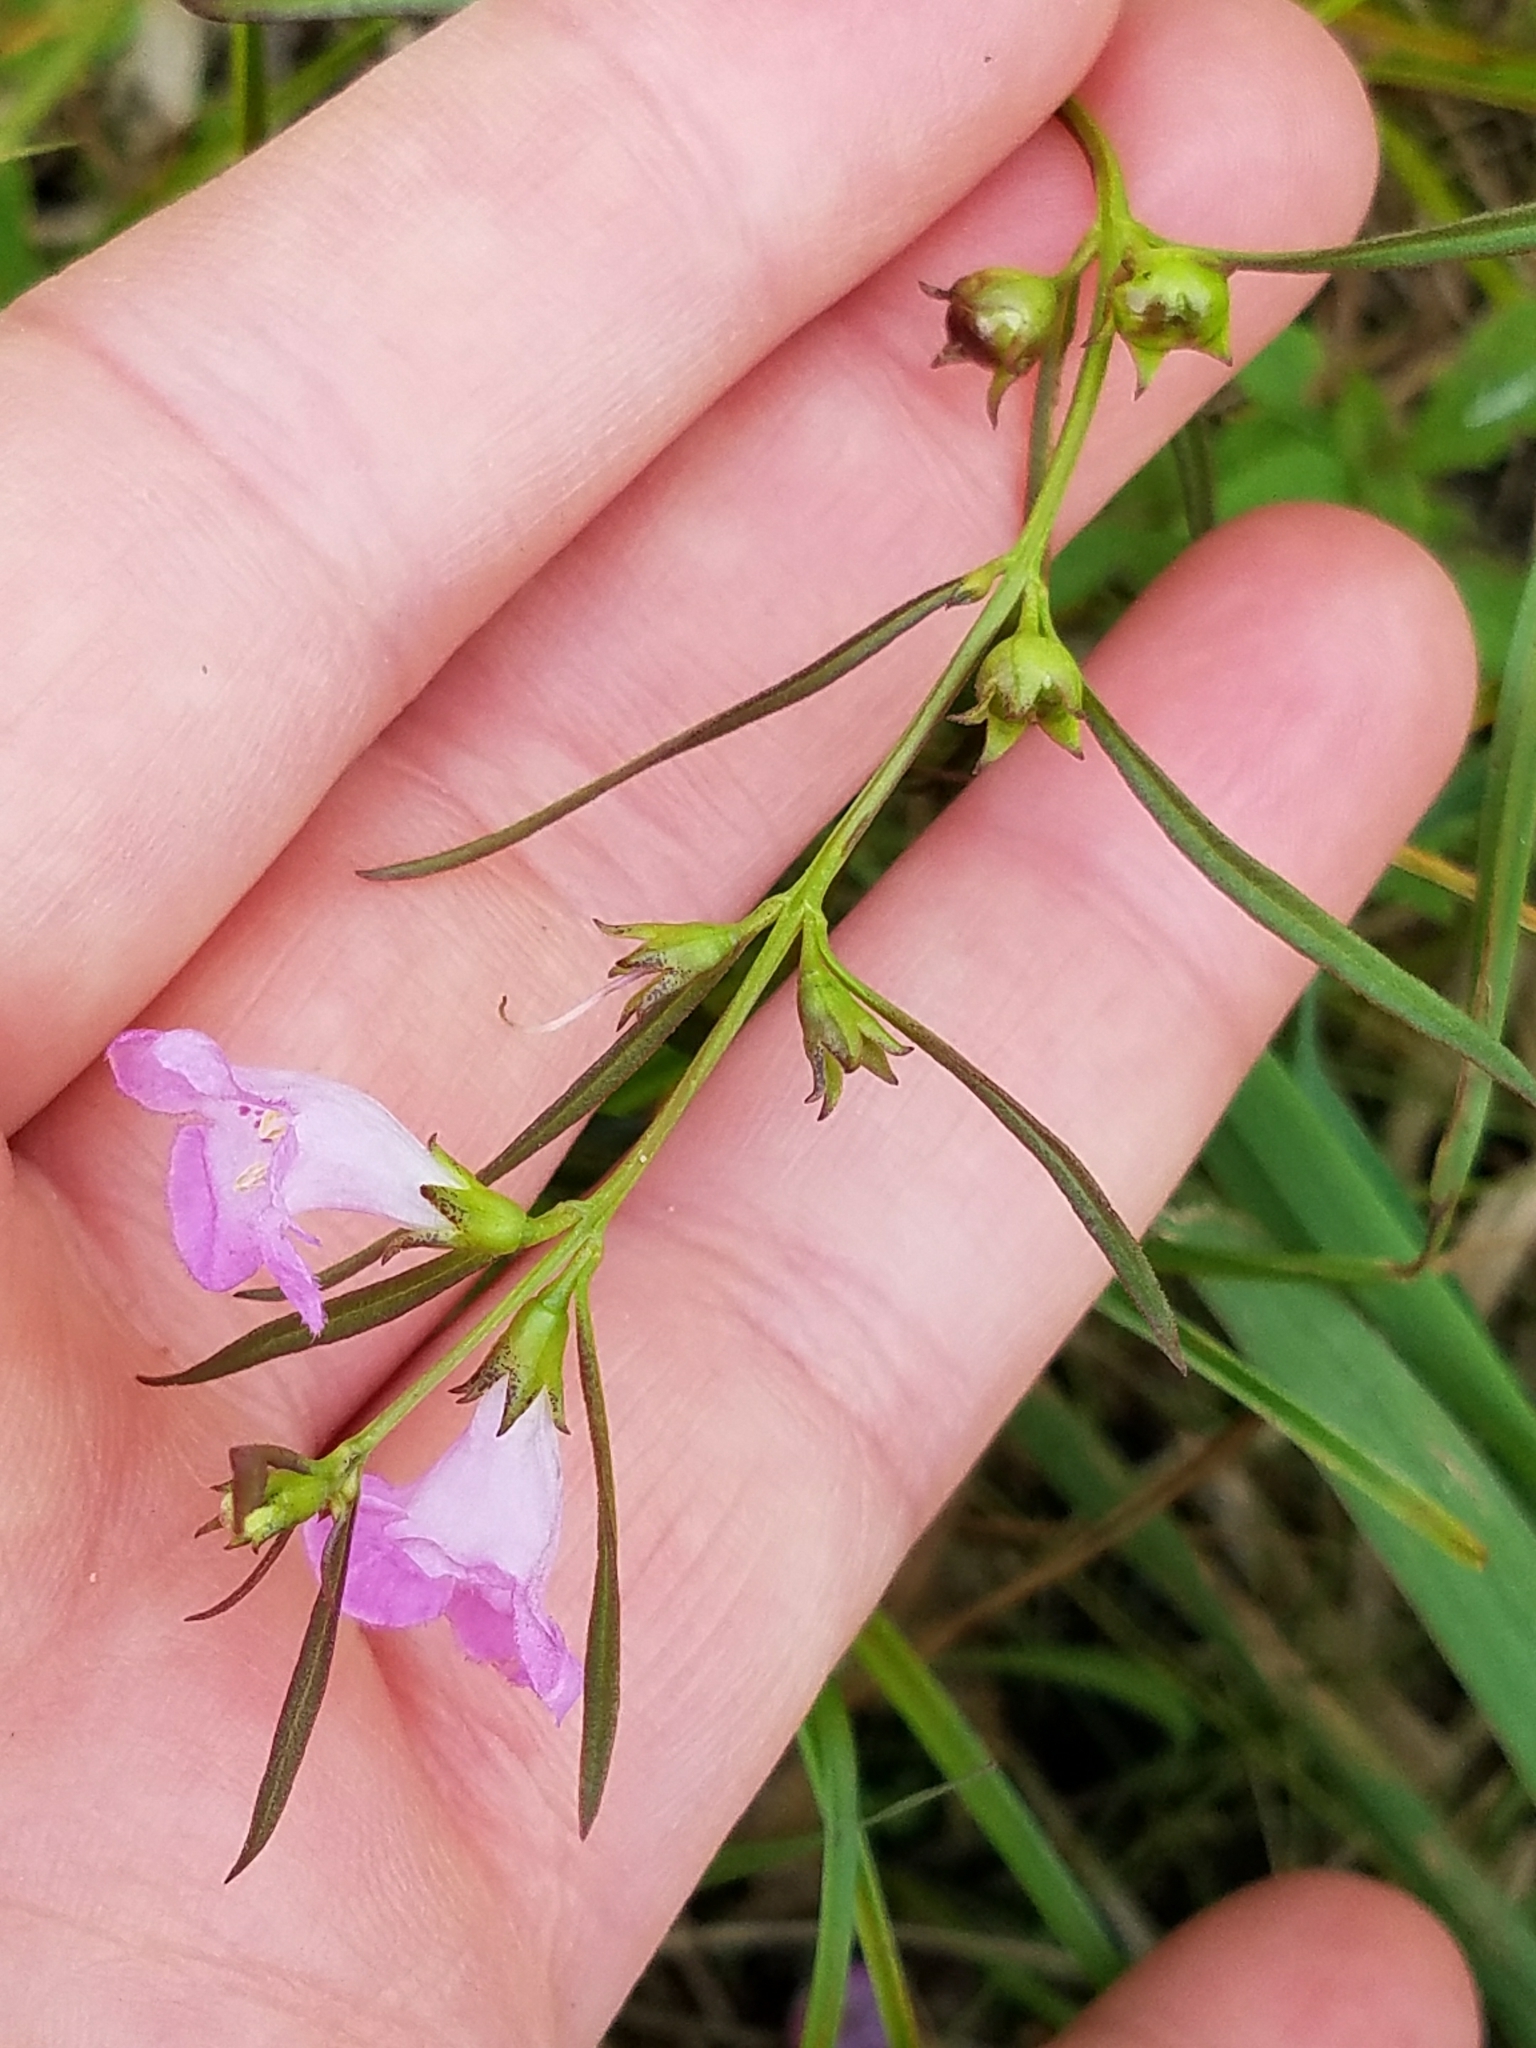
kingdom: Plantae
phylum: Tracheophyta
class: Magnoliopsida
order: Lamiales
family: Orobanchaceae
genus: Agalinis
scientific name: Agalinis purpurea
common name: Purple false foxglove
